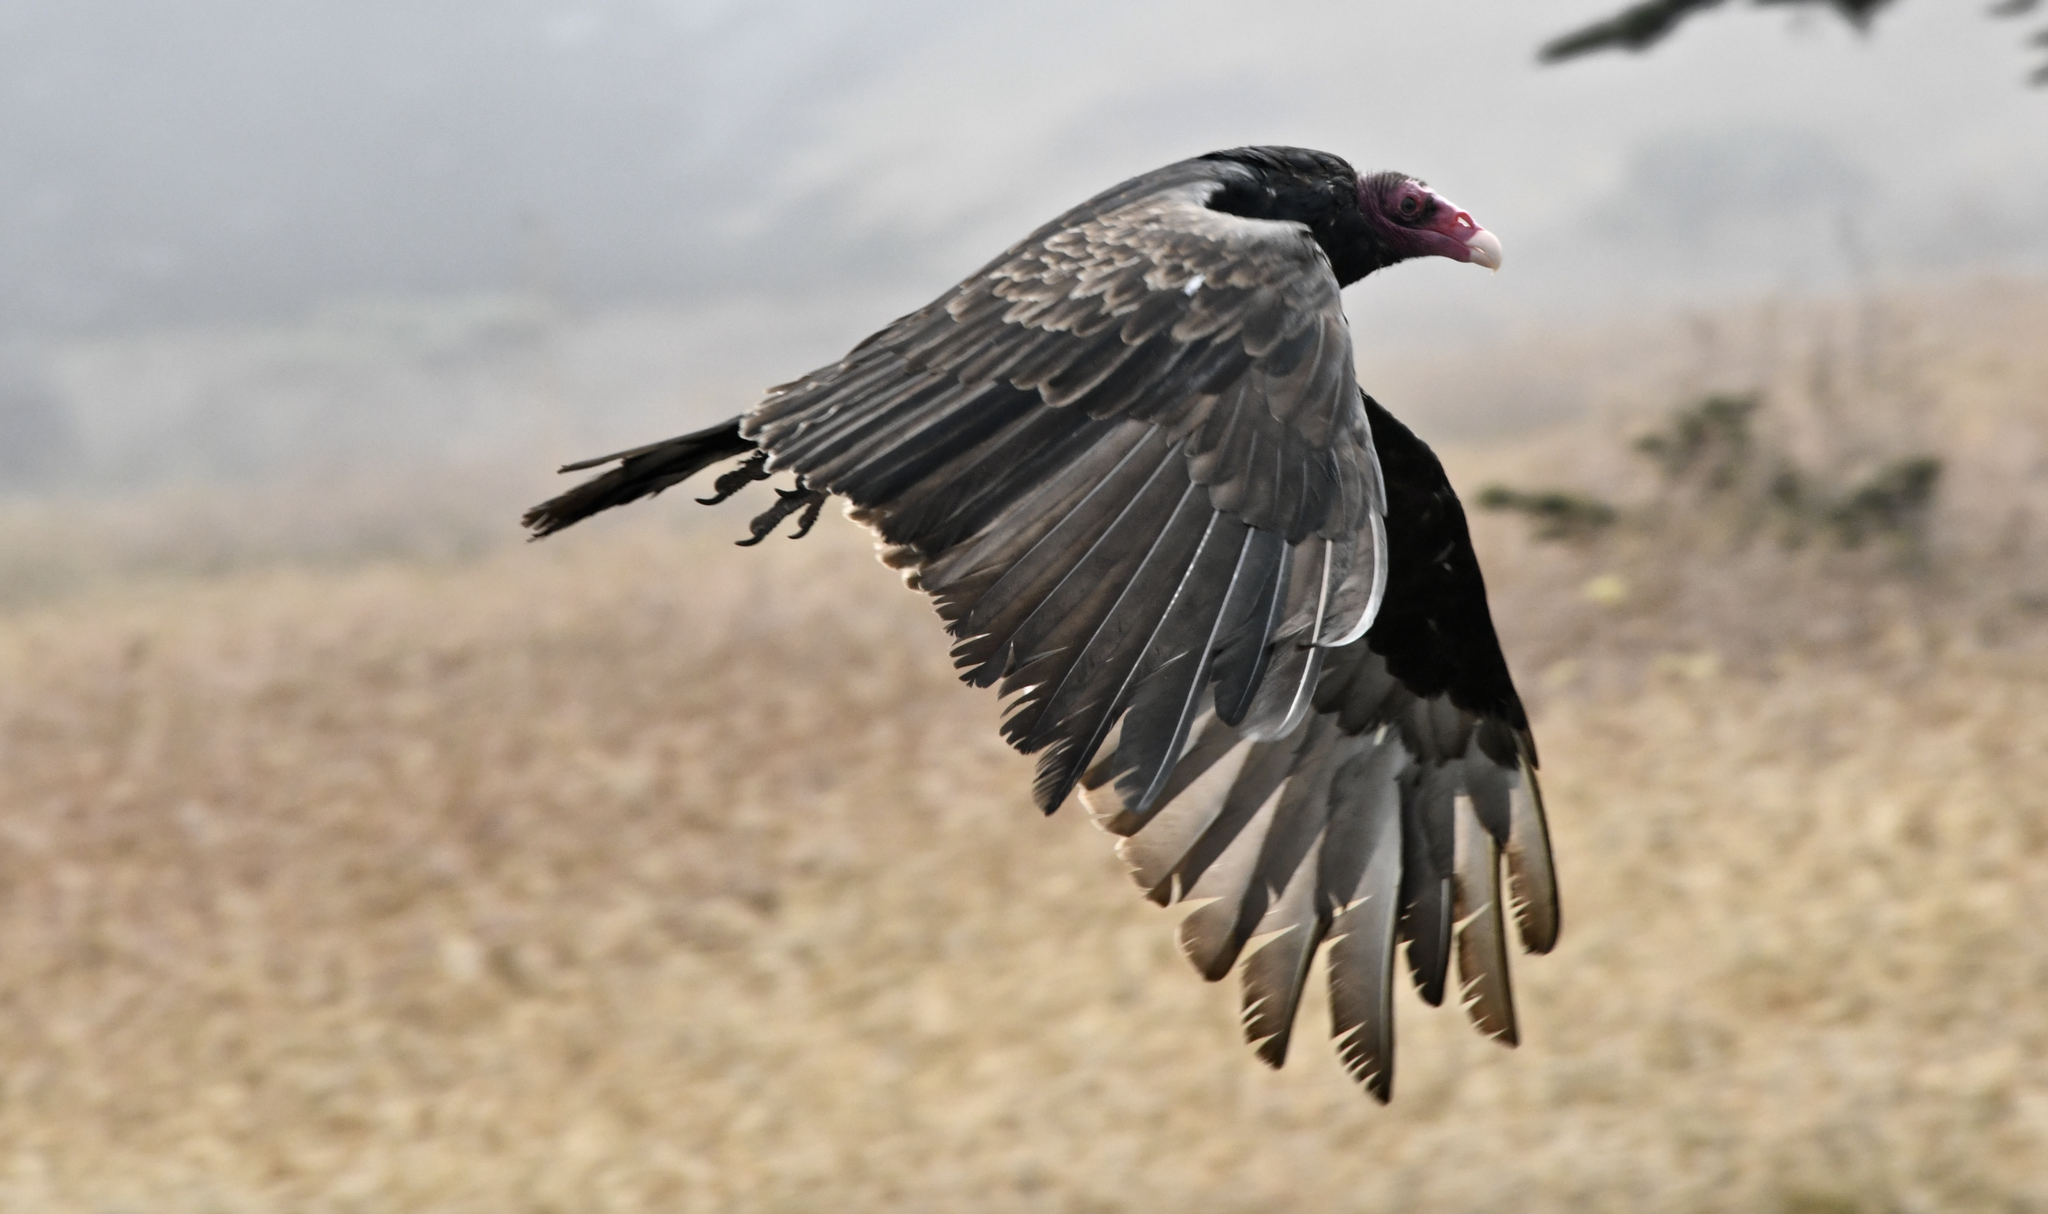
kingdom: Animalia
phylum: Chordata
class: Aves
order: Accipitriformes
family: Cathartidae
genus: Cathartes
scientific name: Cathartes aura
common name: Turkey vulture
